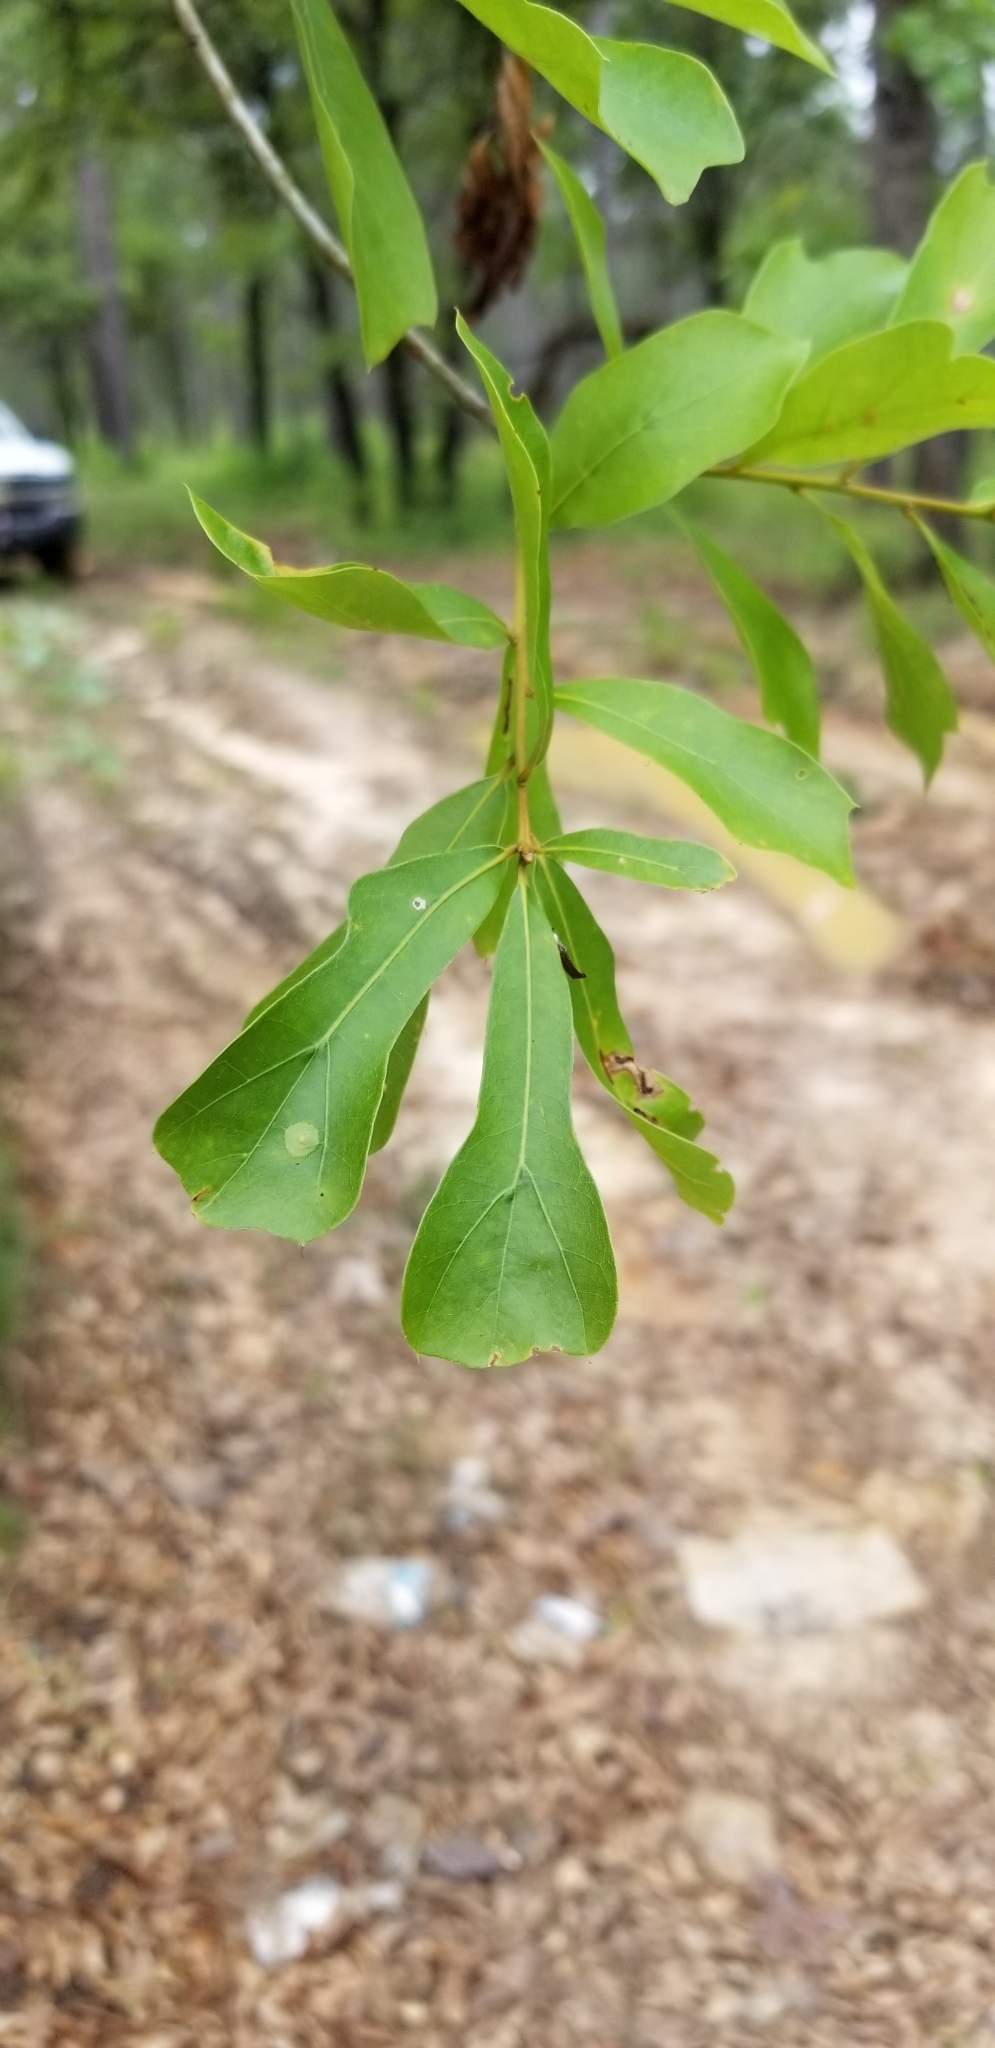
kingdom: Plantae
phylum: Tracheophyta
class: Magnoliopsida
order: Fagales
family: Fagaceae
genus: Quercus
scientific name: Quercus nigra
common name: Water oak
